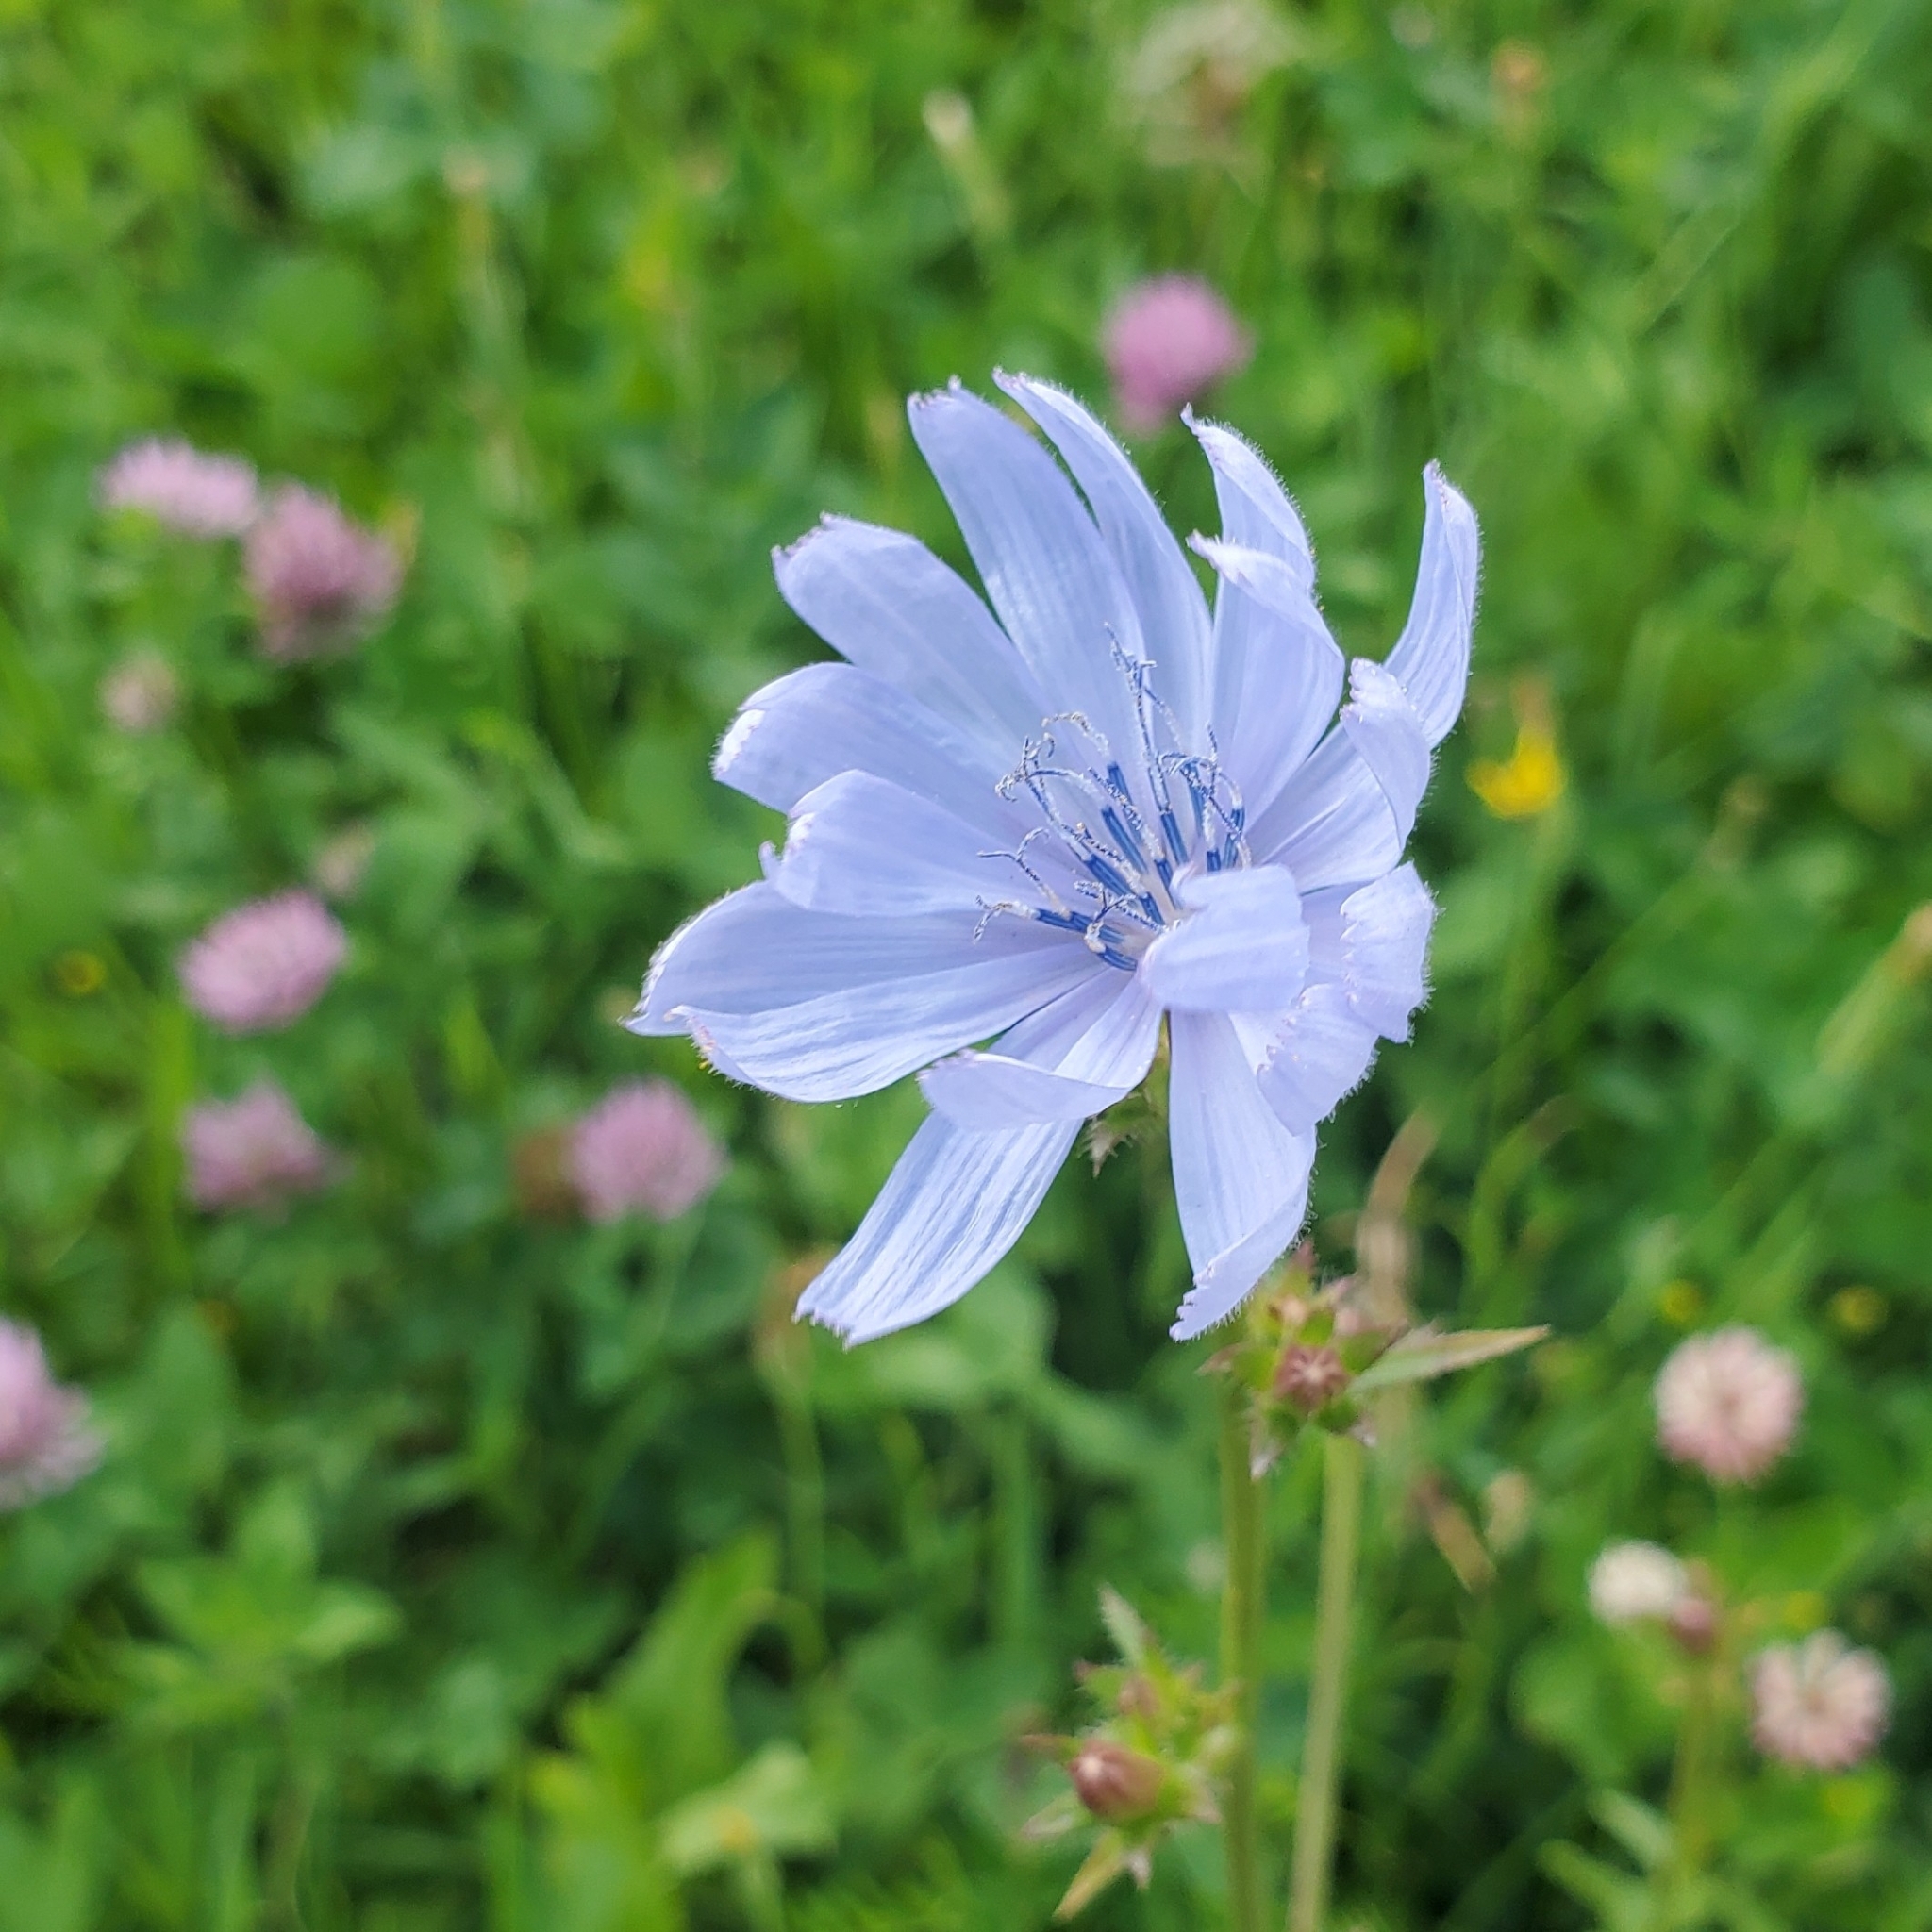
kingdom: Plantae
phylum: Tracheophyta
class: Magnoliopsida
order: Asterales
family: Asteraceae
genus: Cichorium
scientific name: Cichorium intybus
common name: Chicory
